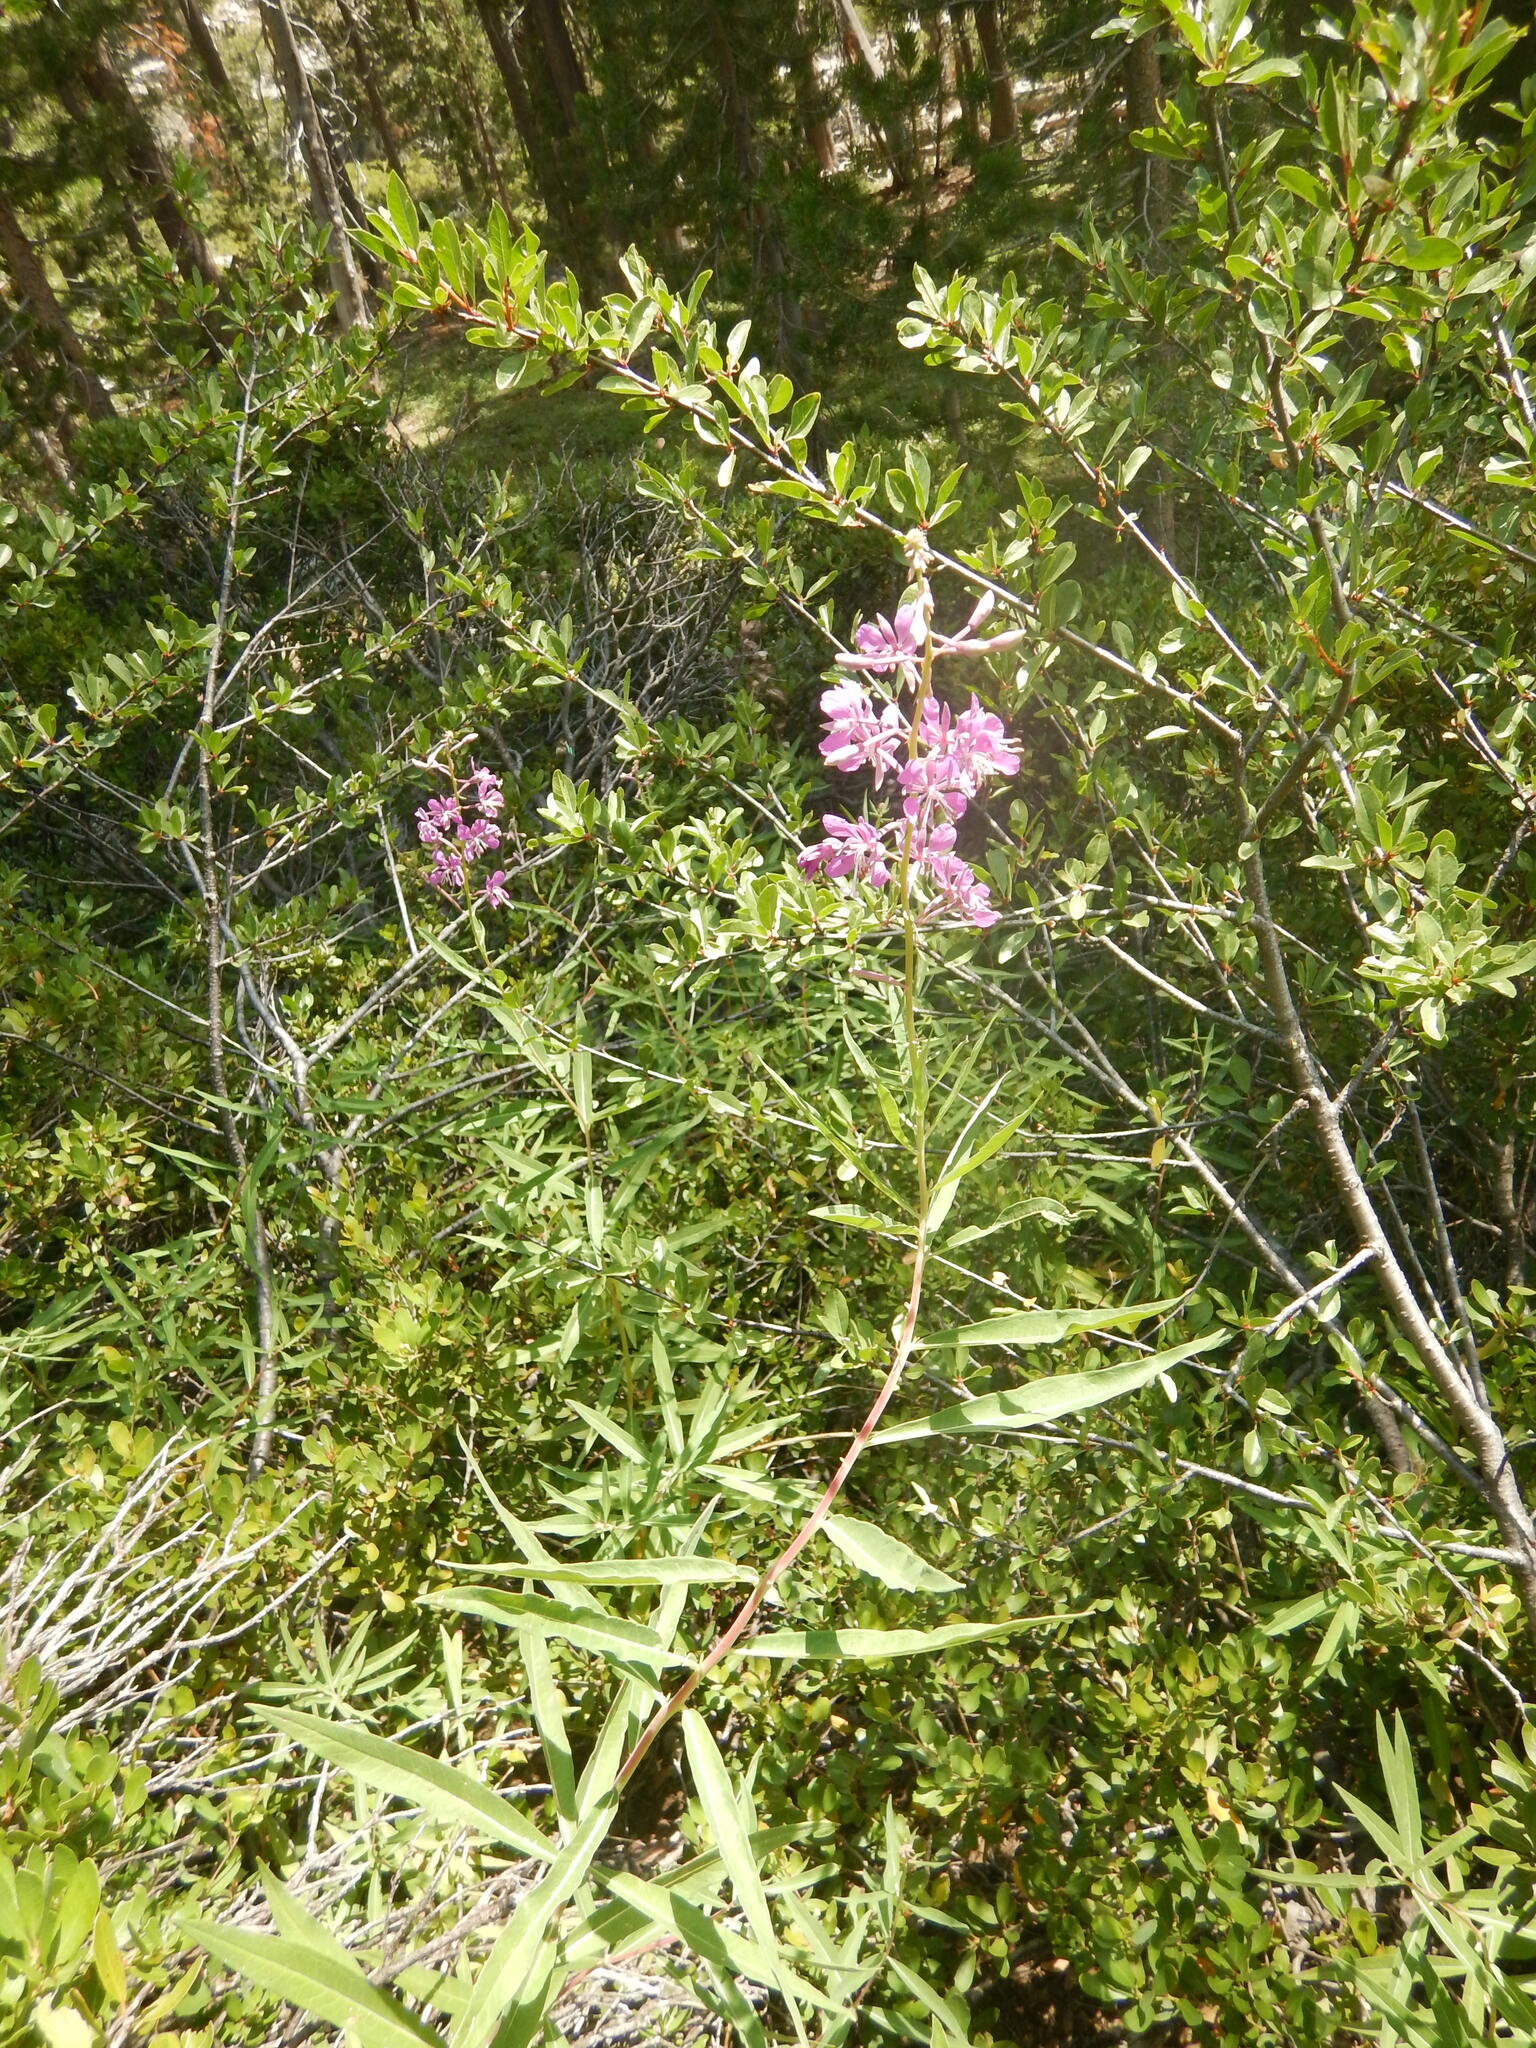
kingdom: Plantae
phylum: Tracheophyta
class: Magnoliopsida
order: Myrtales
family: Onagraceae
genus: Chamaenerion
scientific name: Chamaenerion angustifolium
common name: Fireweed
